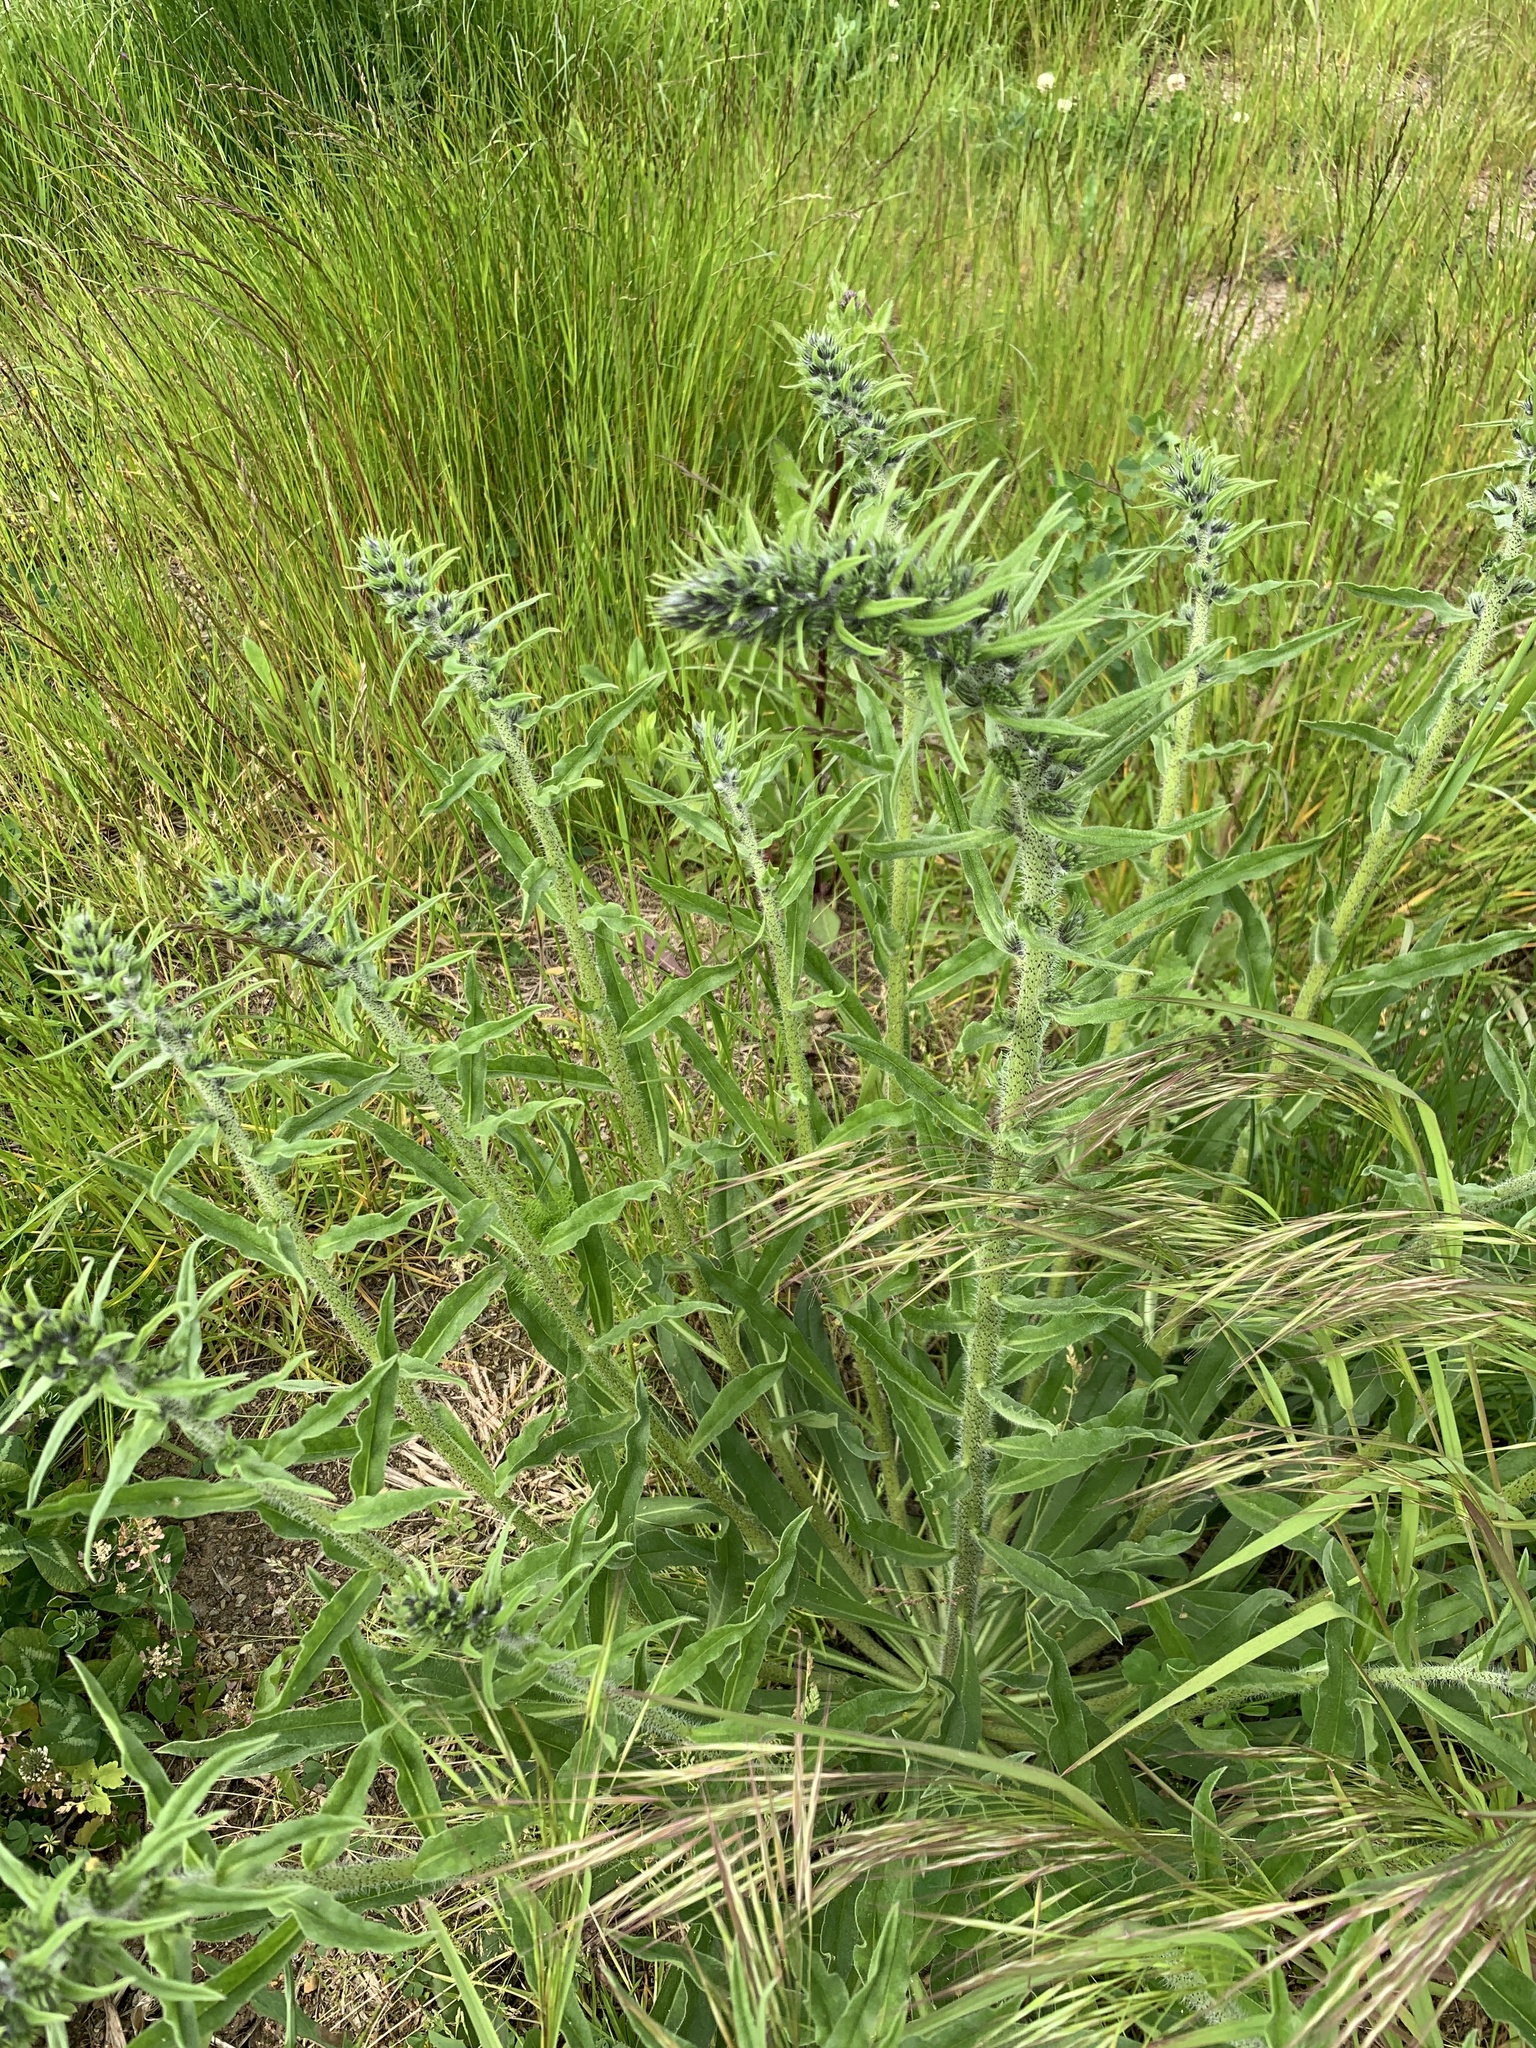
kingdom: Plantae
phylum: Tracheophyta
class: Magnoliopsida
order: Boraginales
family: Boraginaceae
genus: Echium
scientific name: Echium vulgare
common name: Common viper's bugloss
